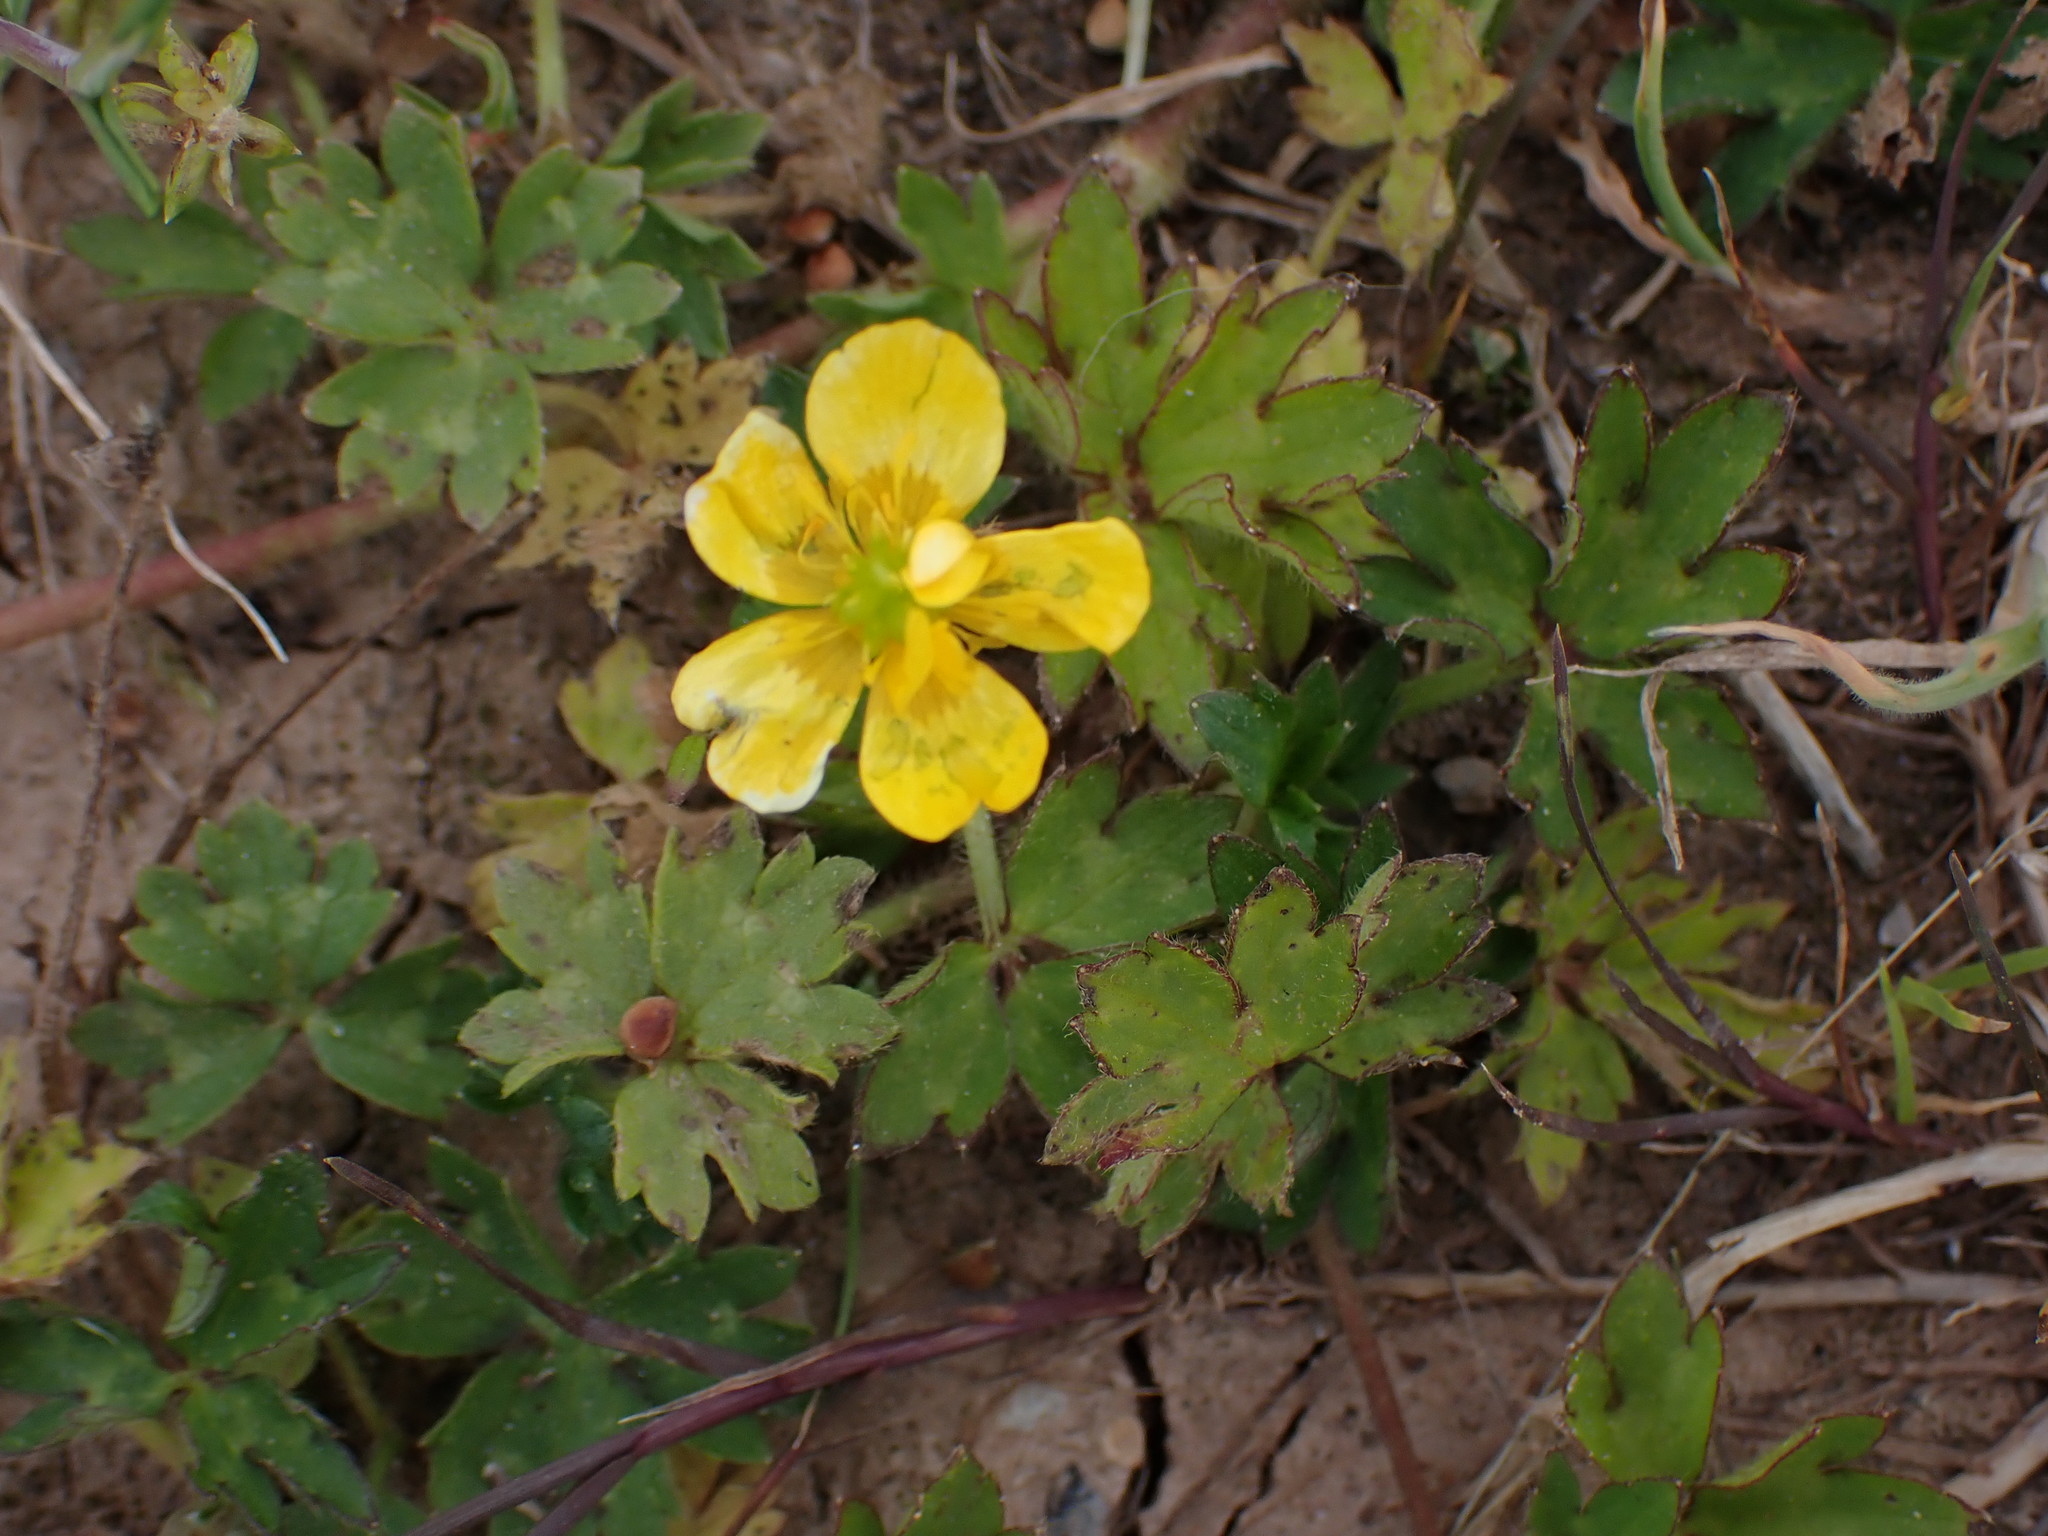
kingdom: Plantae
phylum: Tracheophyta
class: Magnoliopsida
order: Ranunculales
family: Ranunculaceae
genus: Ranunculus
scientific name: Ranunculus repens
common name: Creeping buttercup
